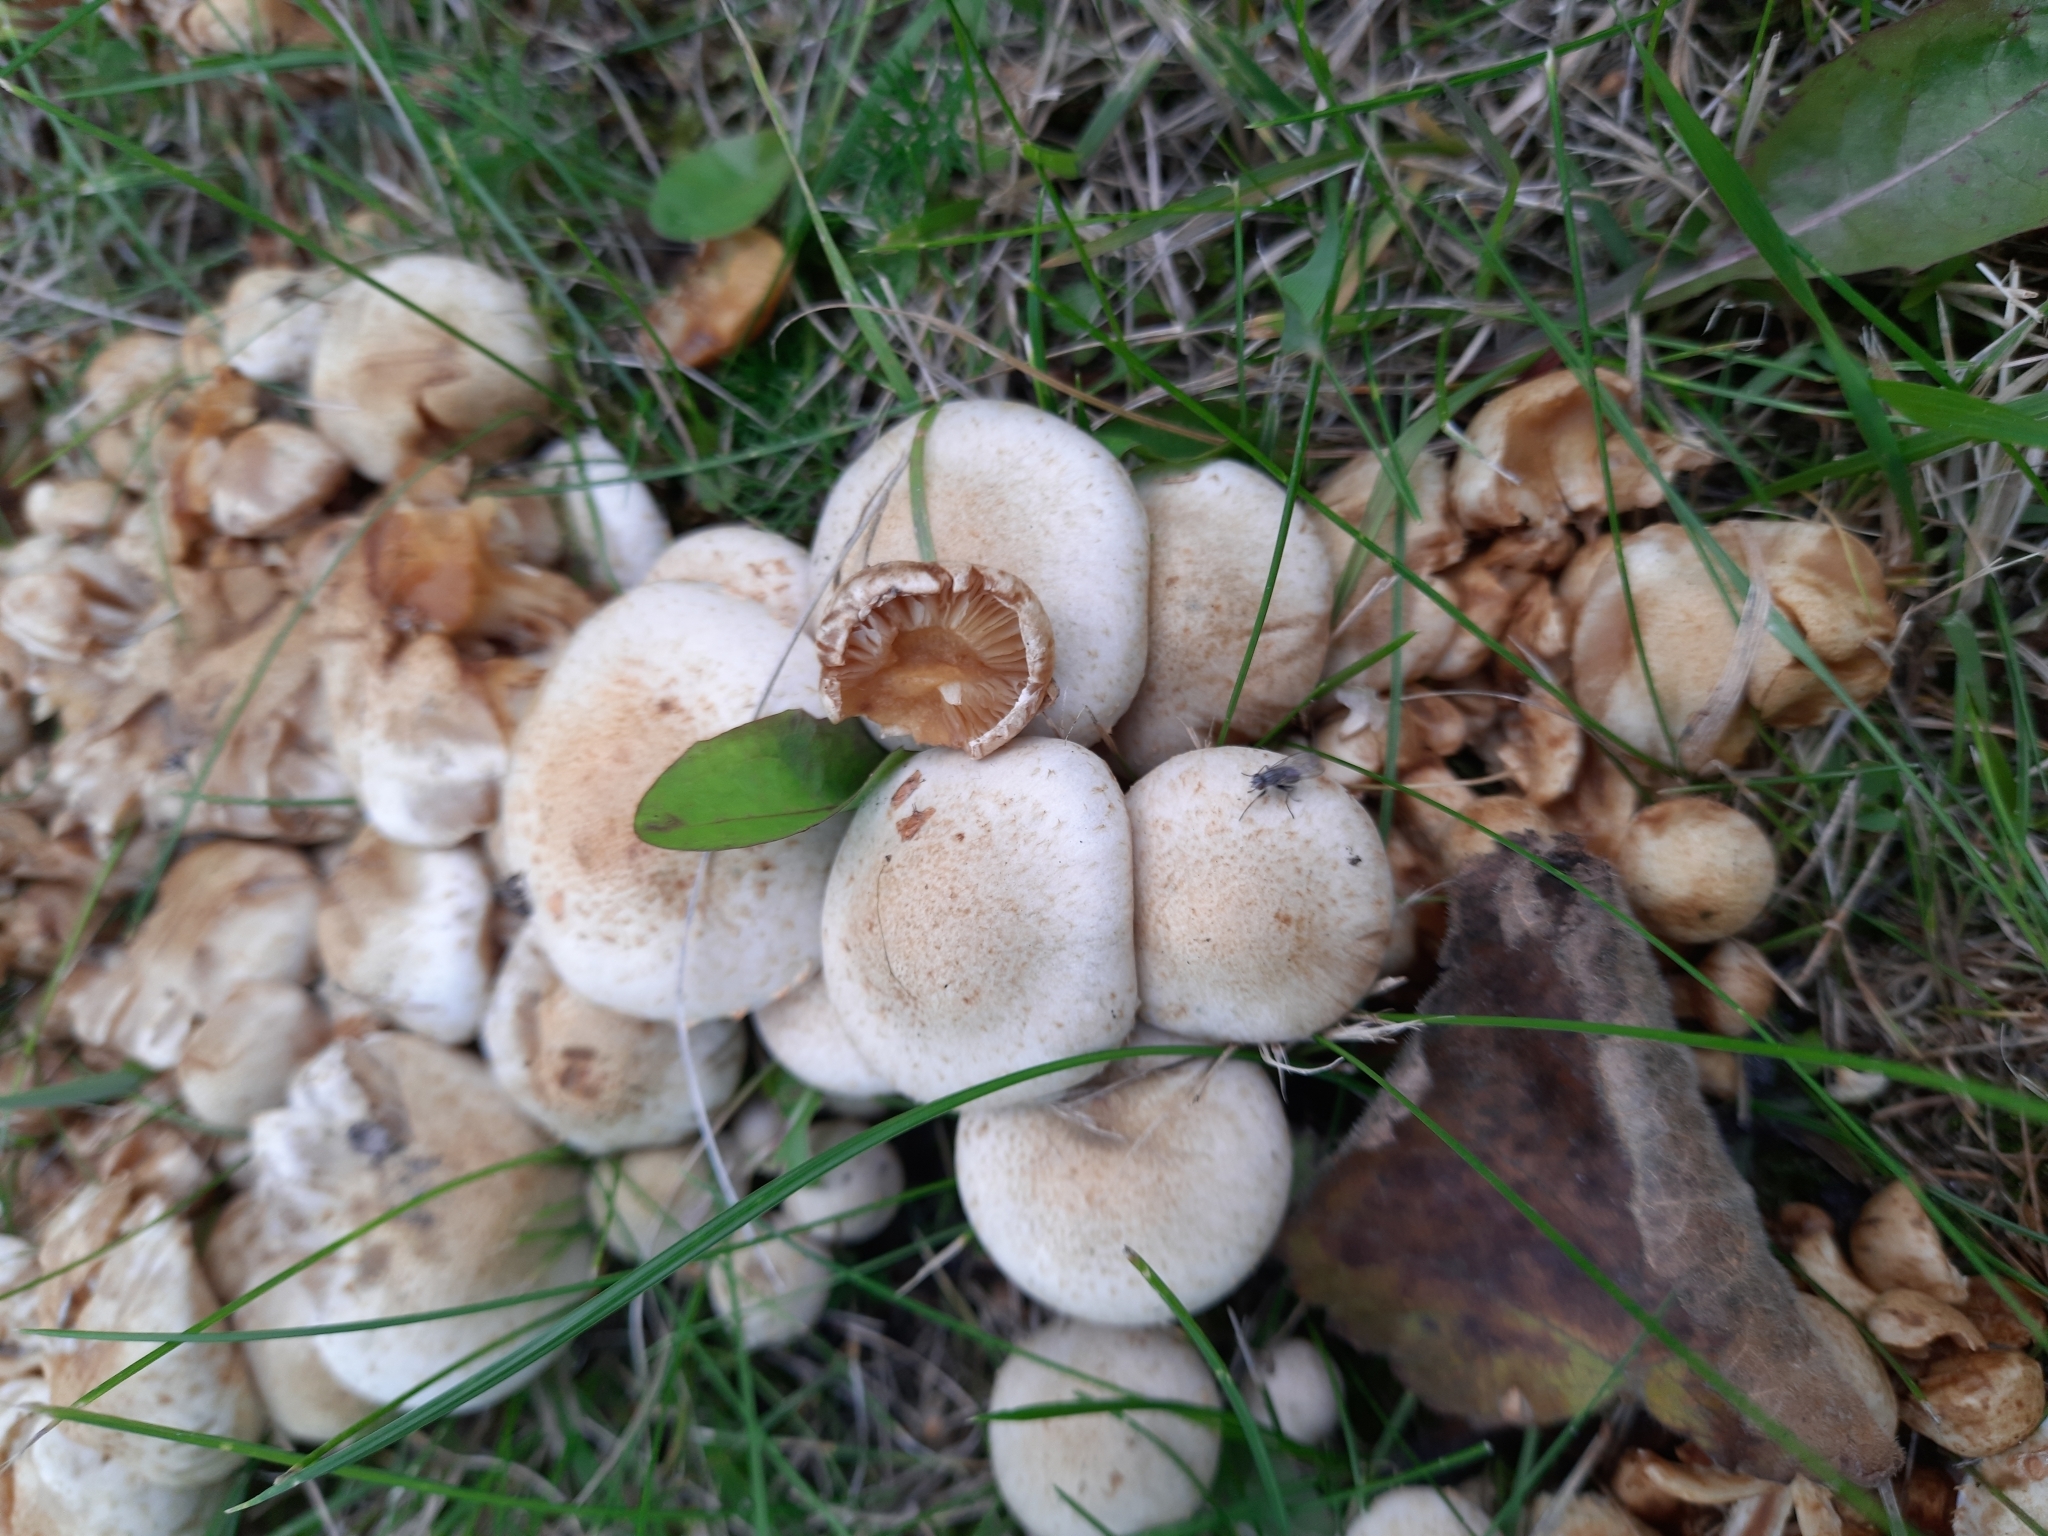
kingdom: Fungi
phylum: Basidiomycota
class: Agaricomycetes
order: Agaricales
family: Strophariaceae
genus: Pholiota
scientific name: Pholiota gummosa
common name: Sticky scalycap
